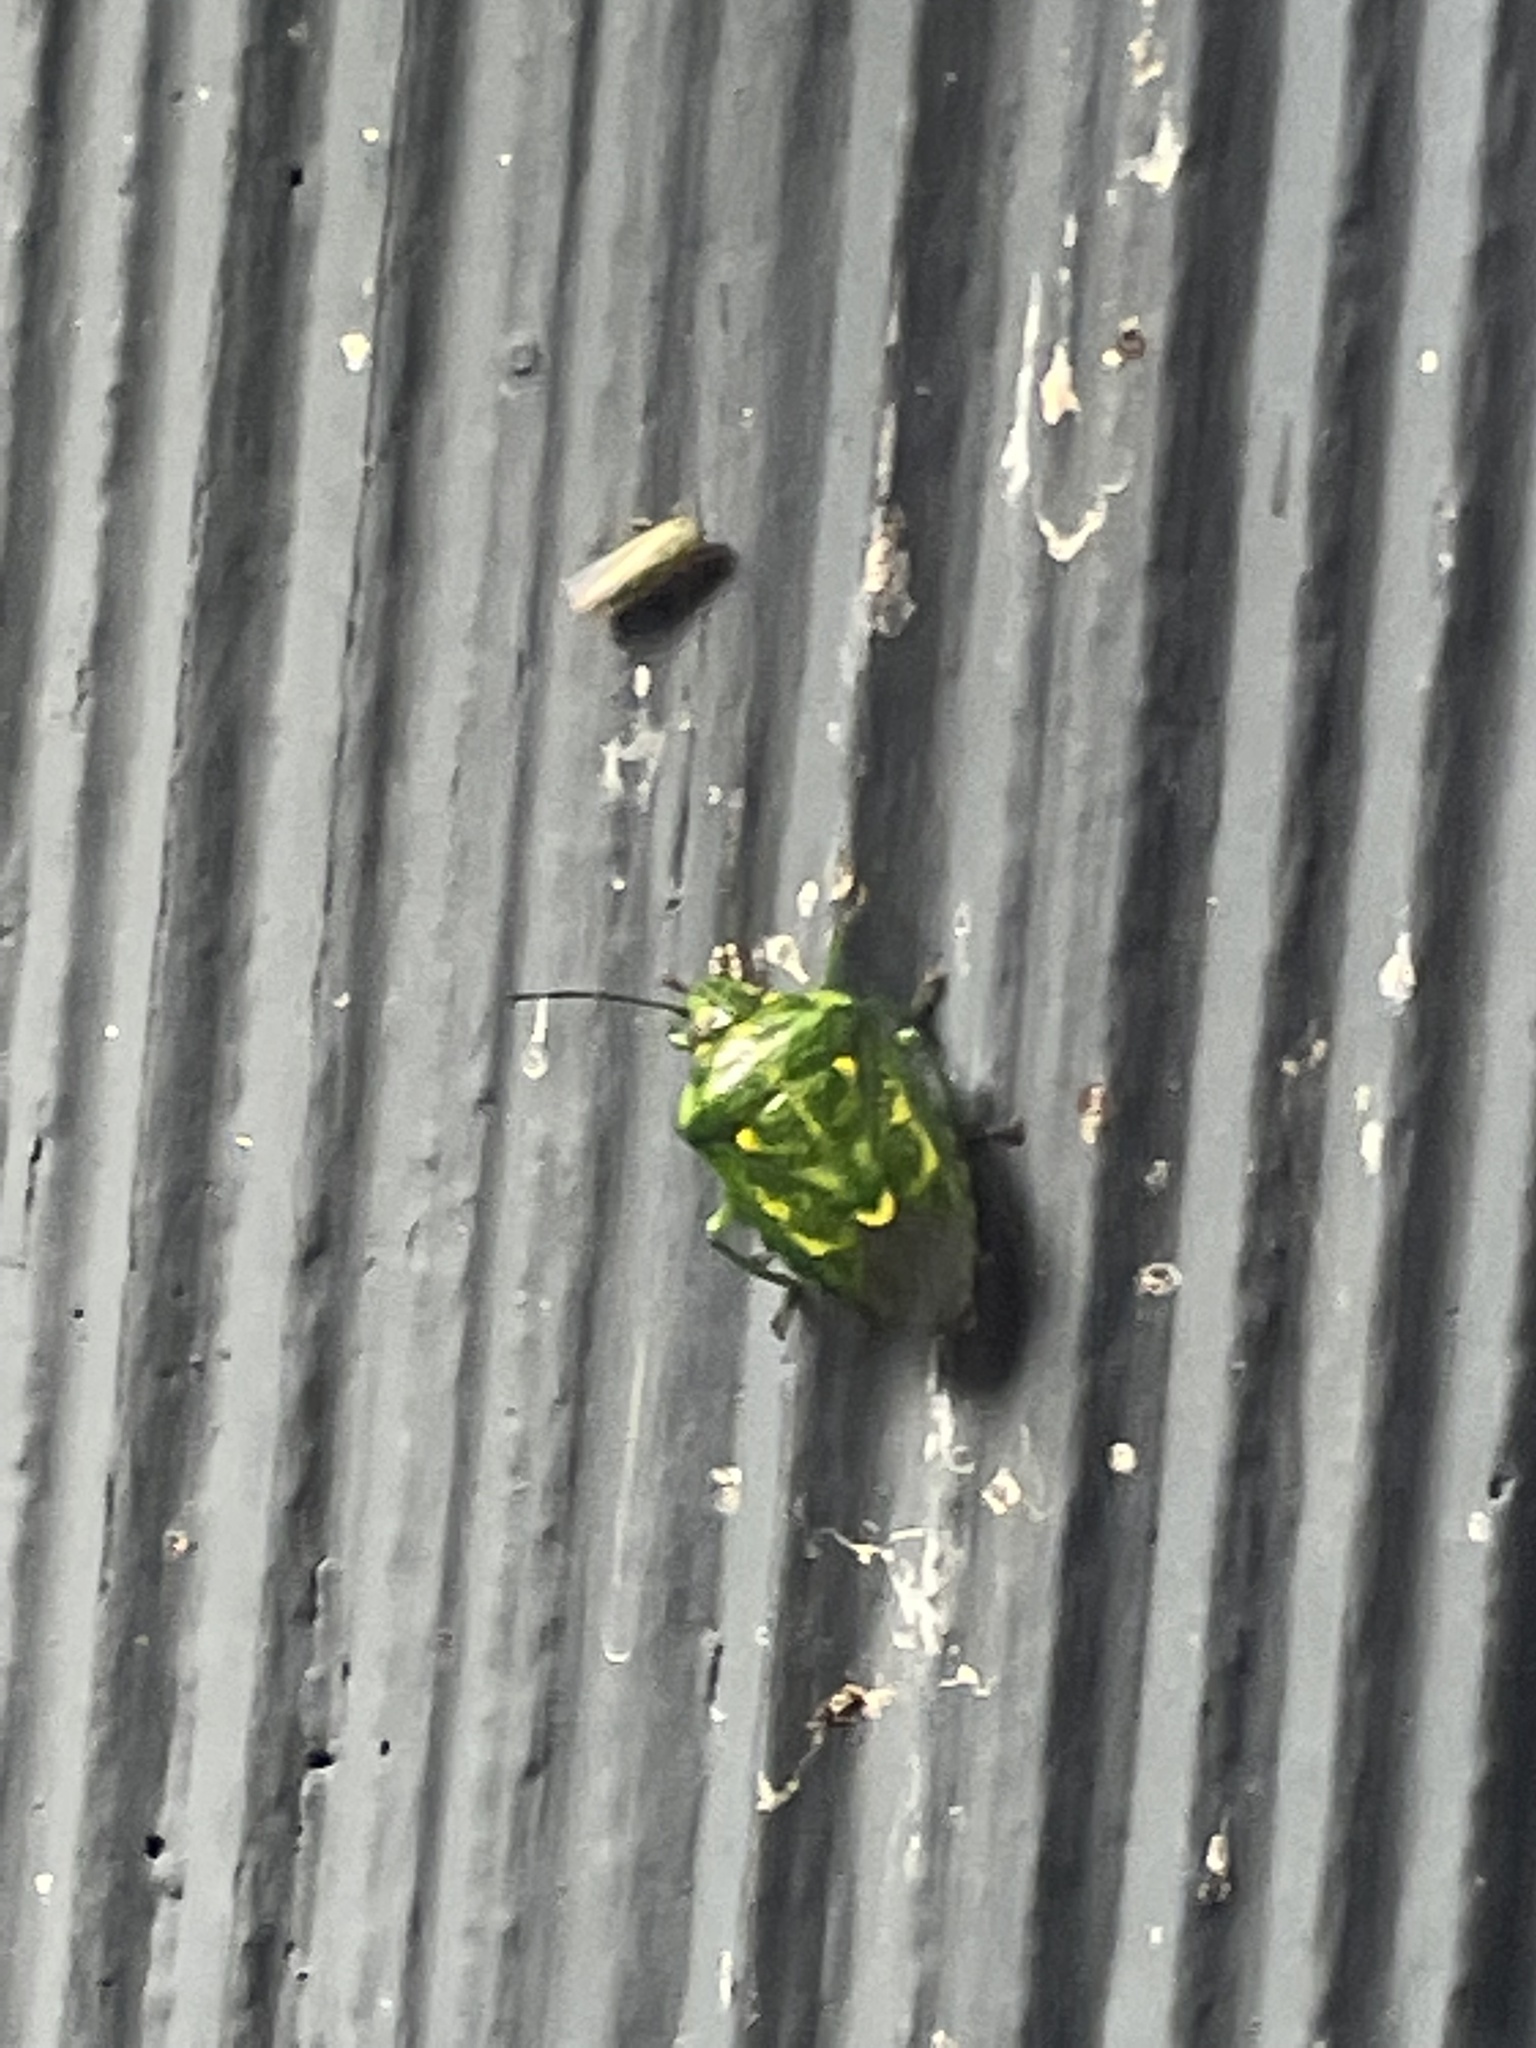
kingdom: Animalia
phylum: Arthropoda
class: Insecta
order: Hemiptera
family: Pentatomidae
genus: Banasa
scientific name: Banasa euchlora
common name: Cedar berry bug
